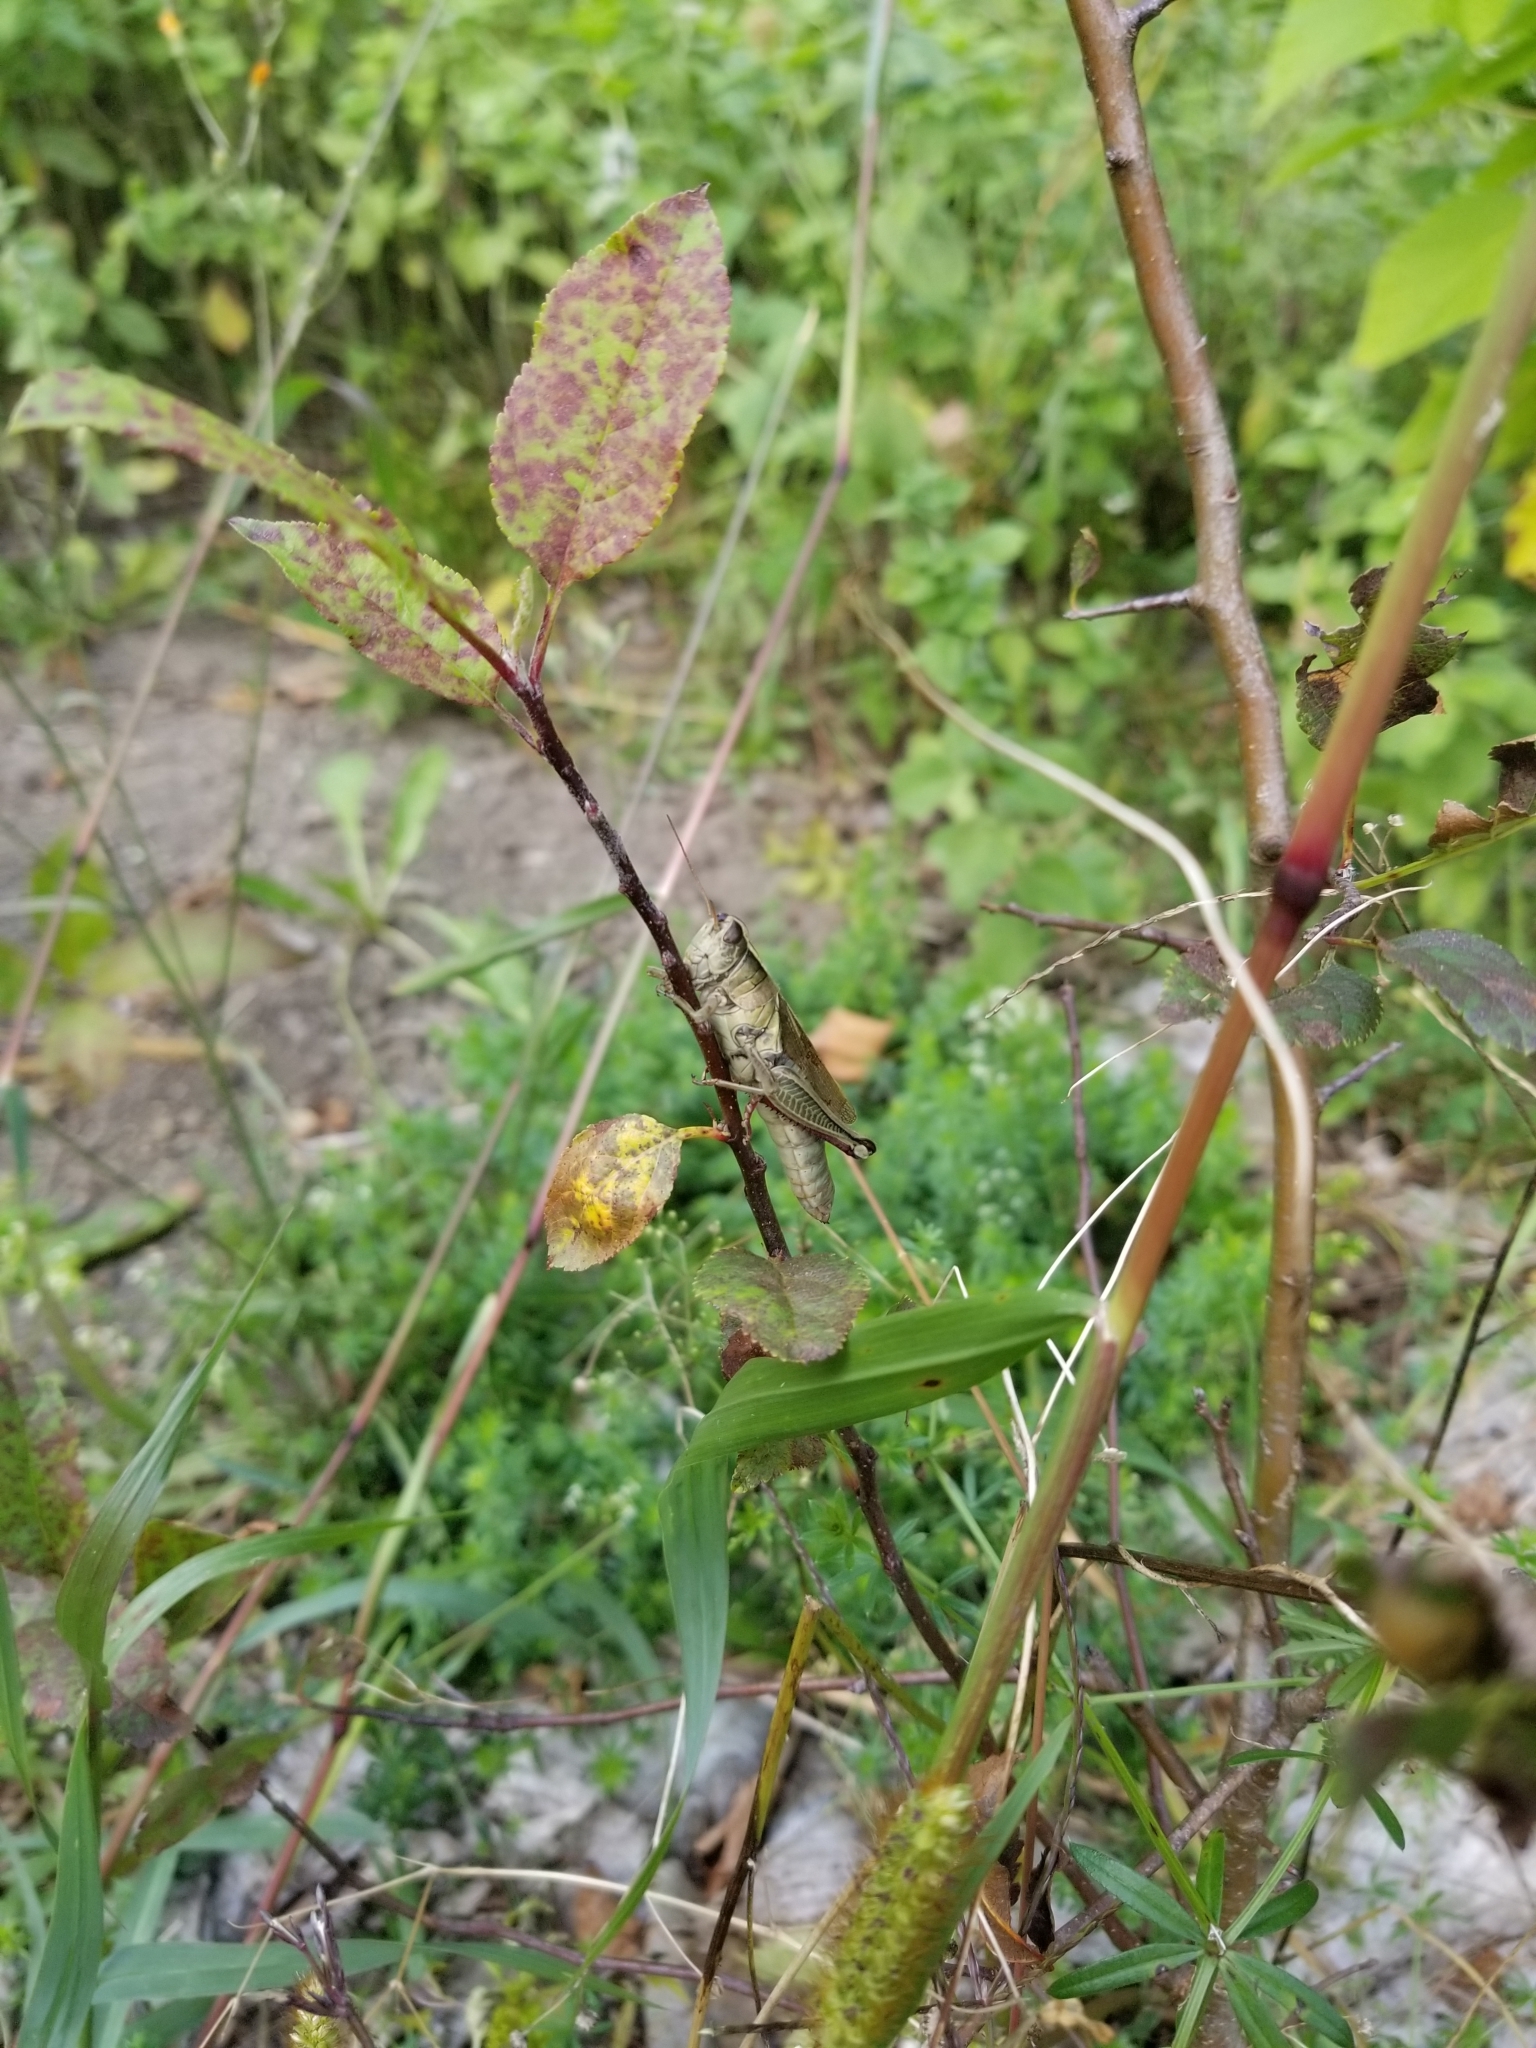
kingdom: Animalia
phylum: Arthropoda
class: Insecta
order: Orthoptera
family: Acrididae
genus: Melanoplus
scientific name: Melanoplus bivittatus
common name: Two-striped grasshopper
